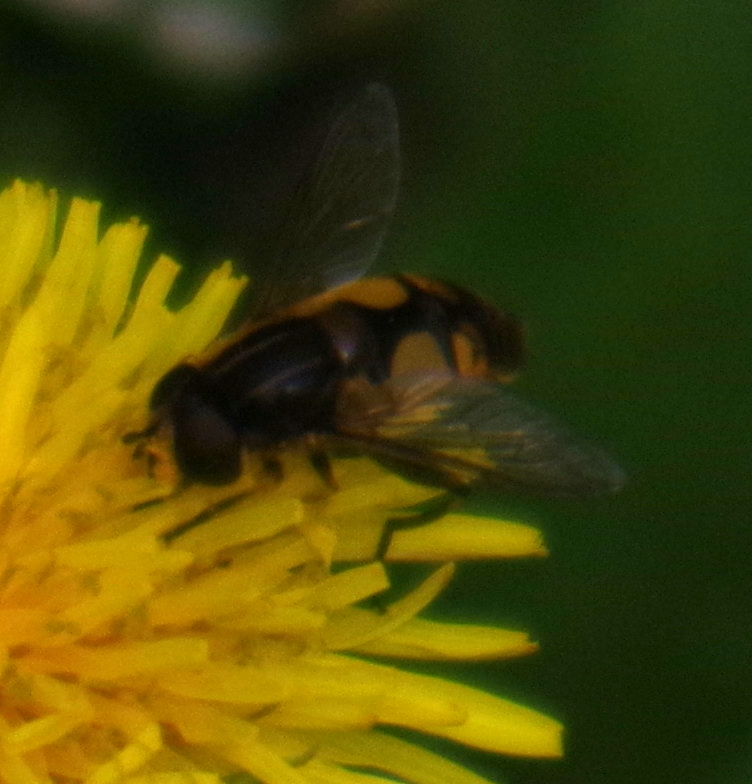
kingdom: Animalia
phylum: Arthropoda
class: Insecta
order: Diptera
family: Syrphidae
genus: Helophilus
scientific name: Helophilus hybridus
